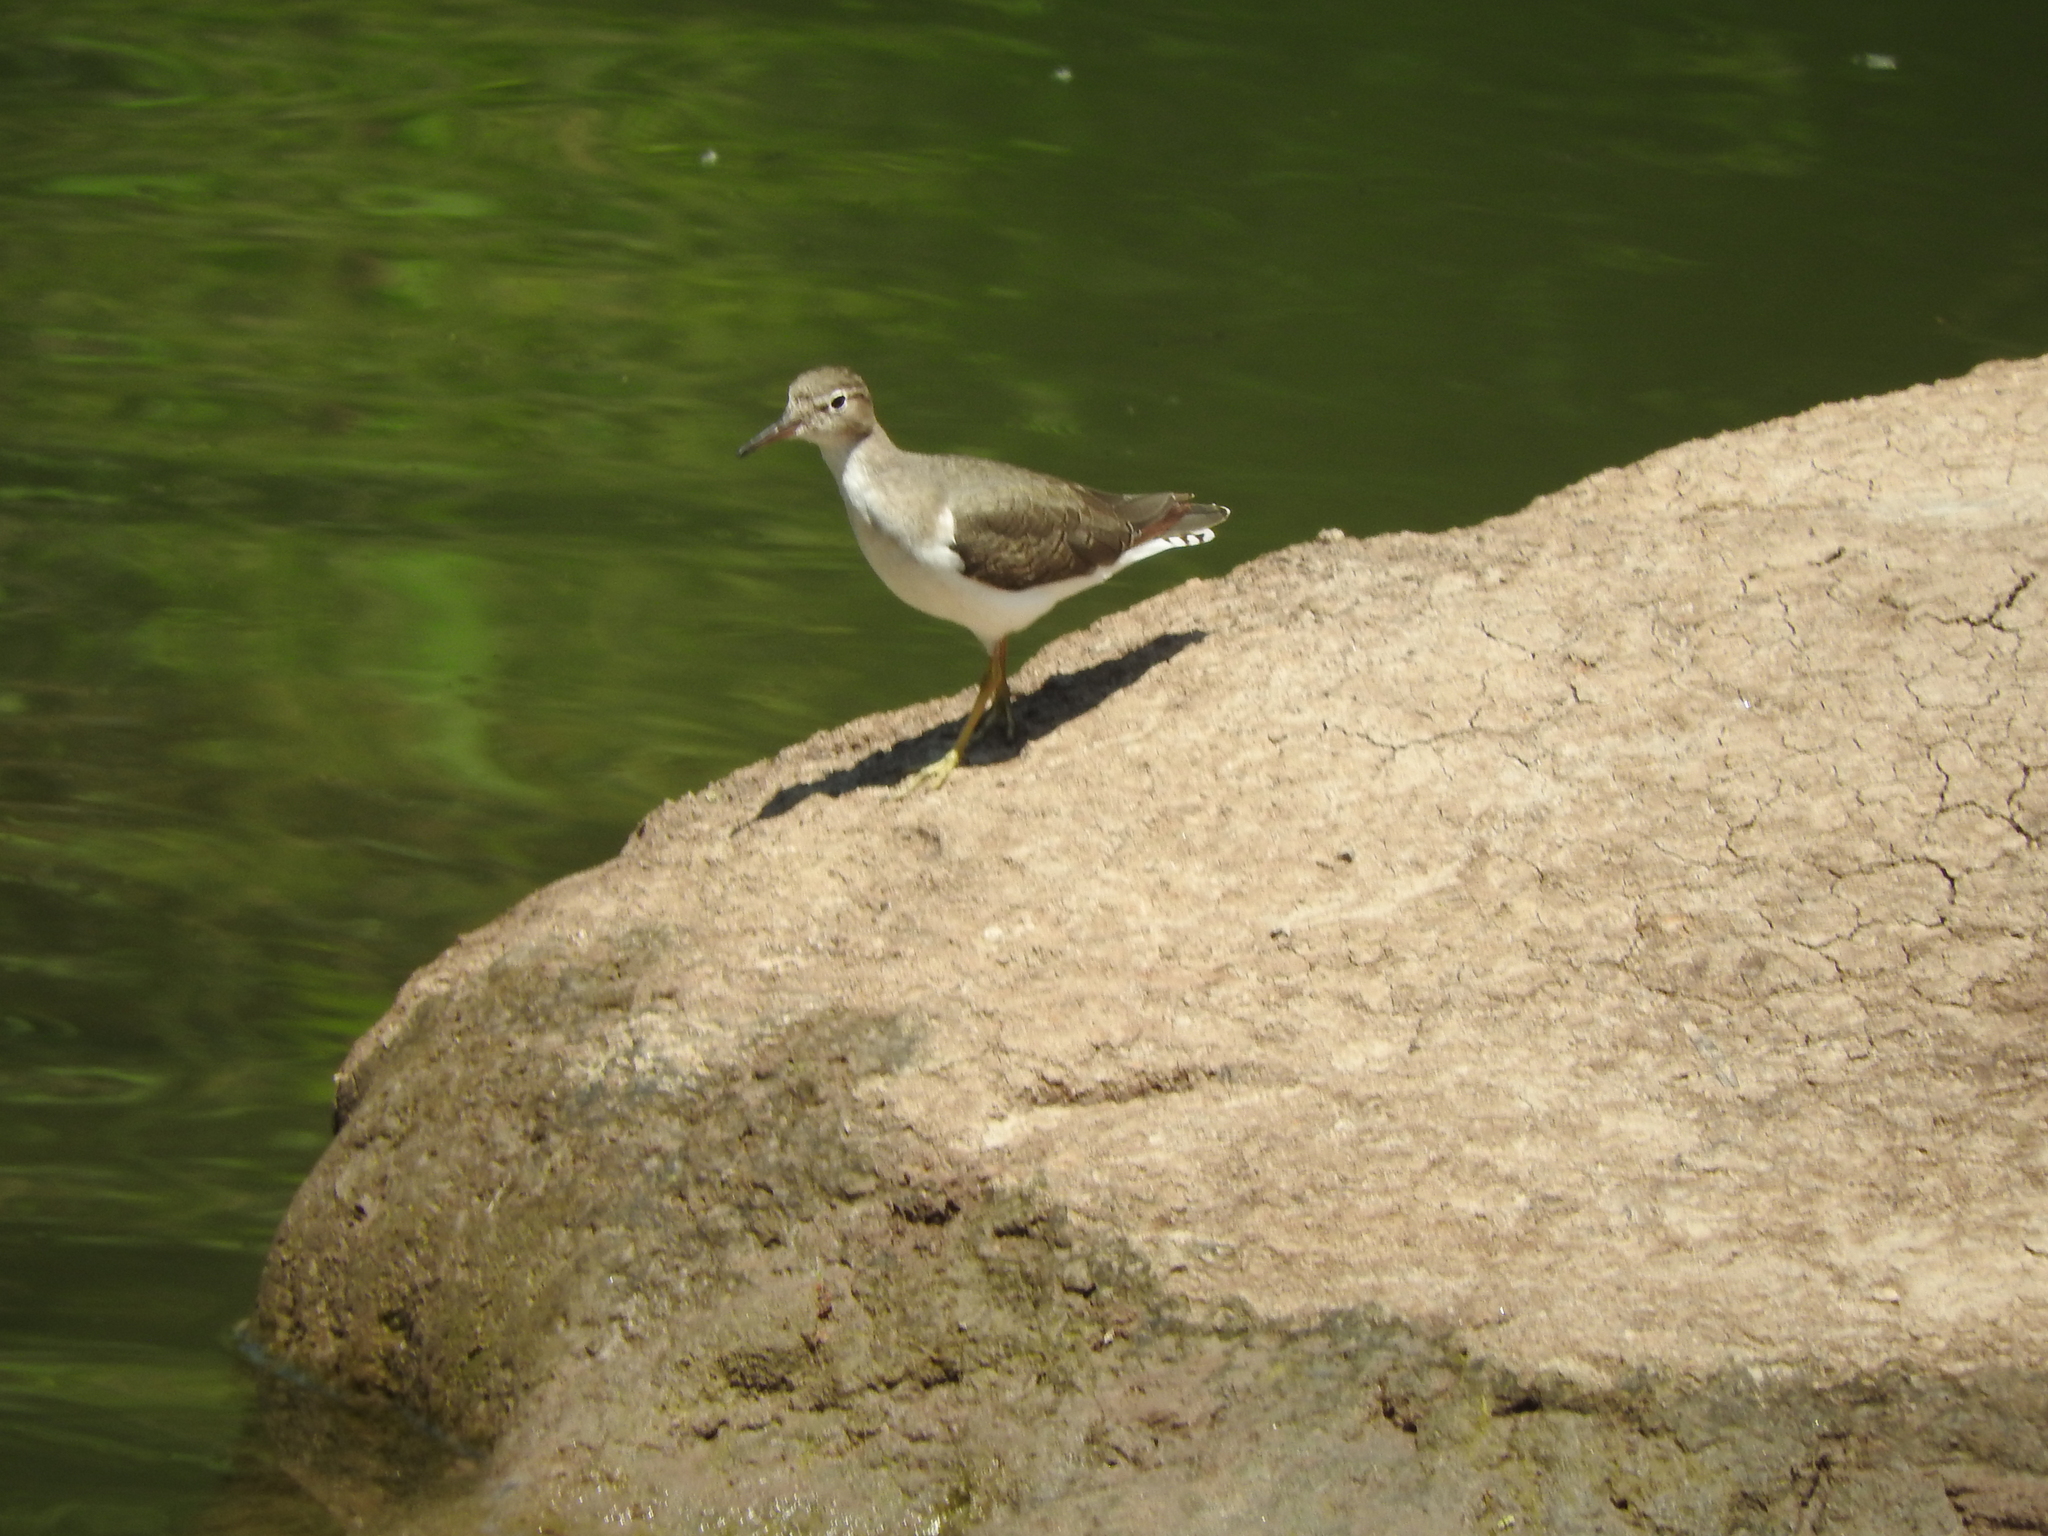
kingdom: Animalia
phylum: Chordata
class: Aves
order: Charadriiformes
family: Scolopacidae
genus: Actitis
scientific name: Actitis macularius
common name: Spotted sandpiper
